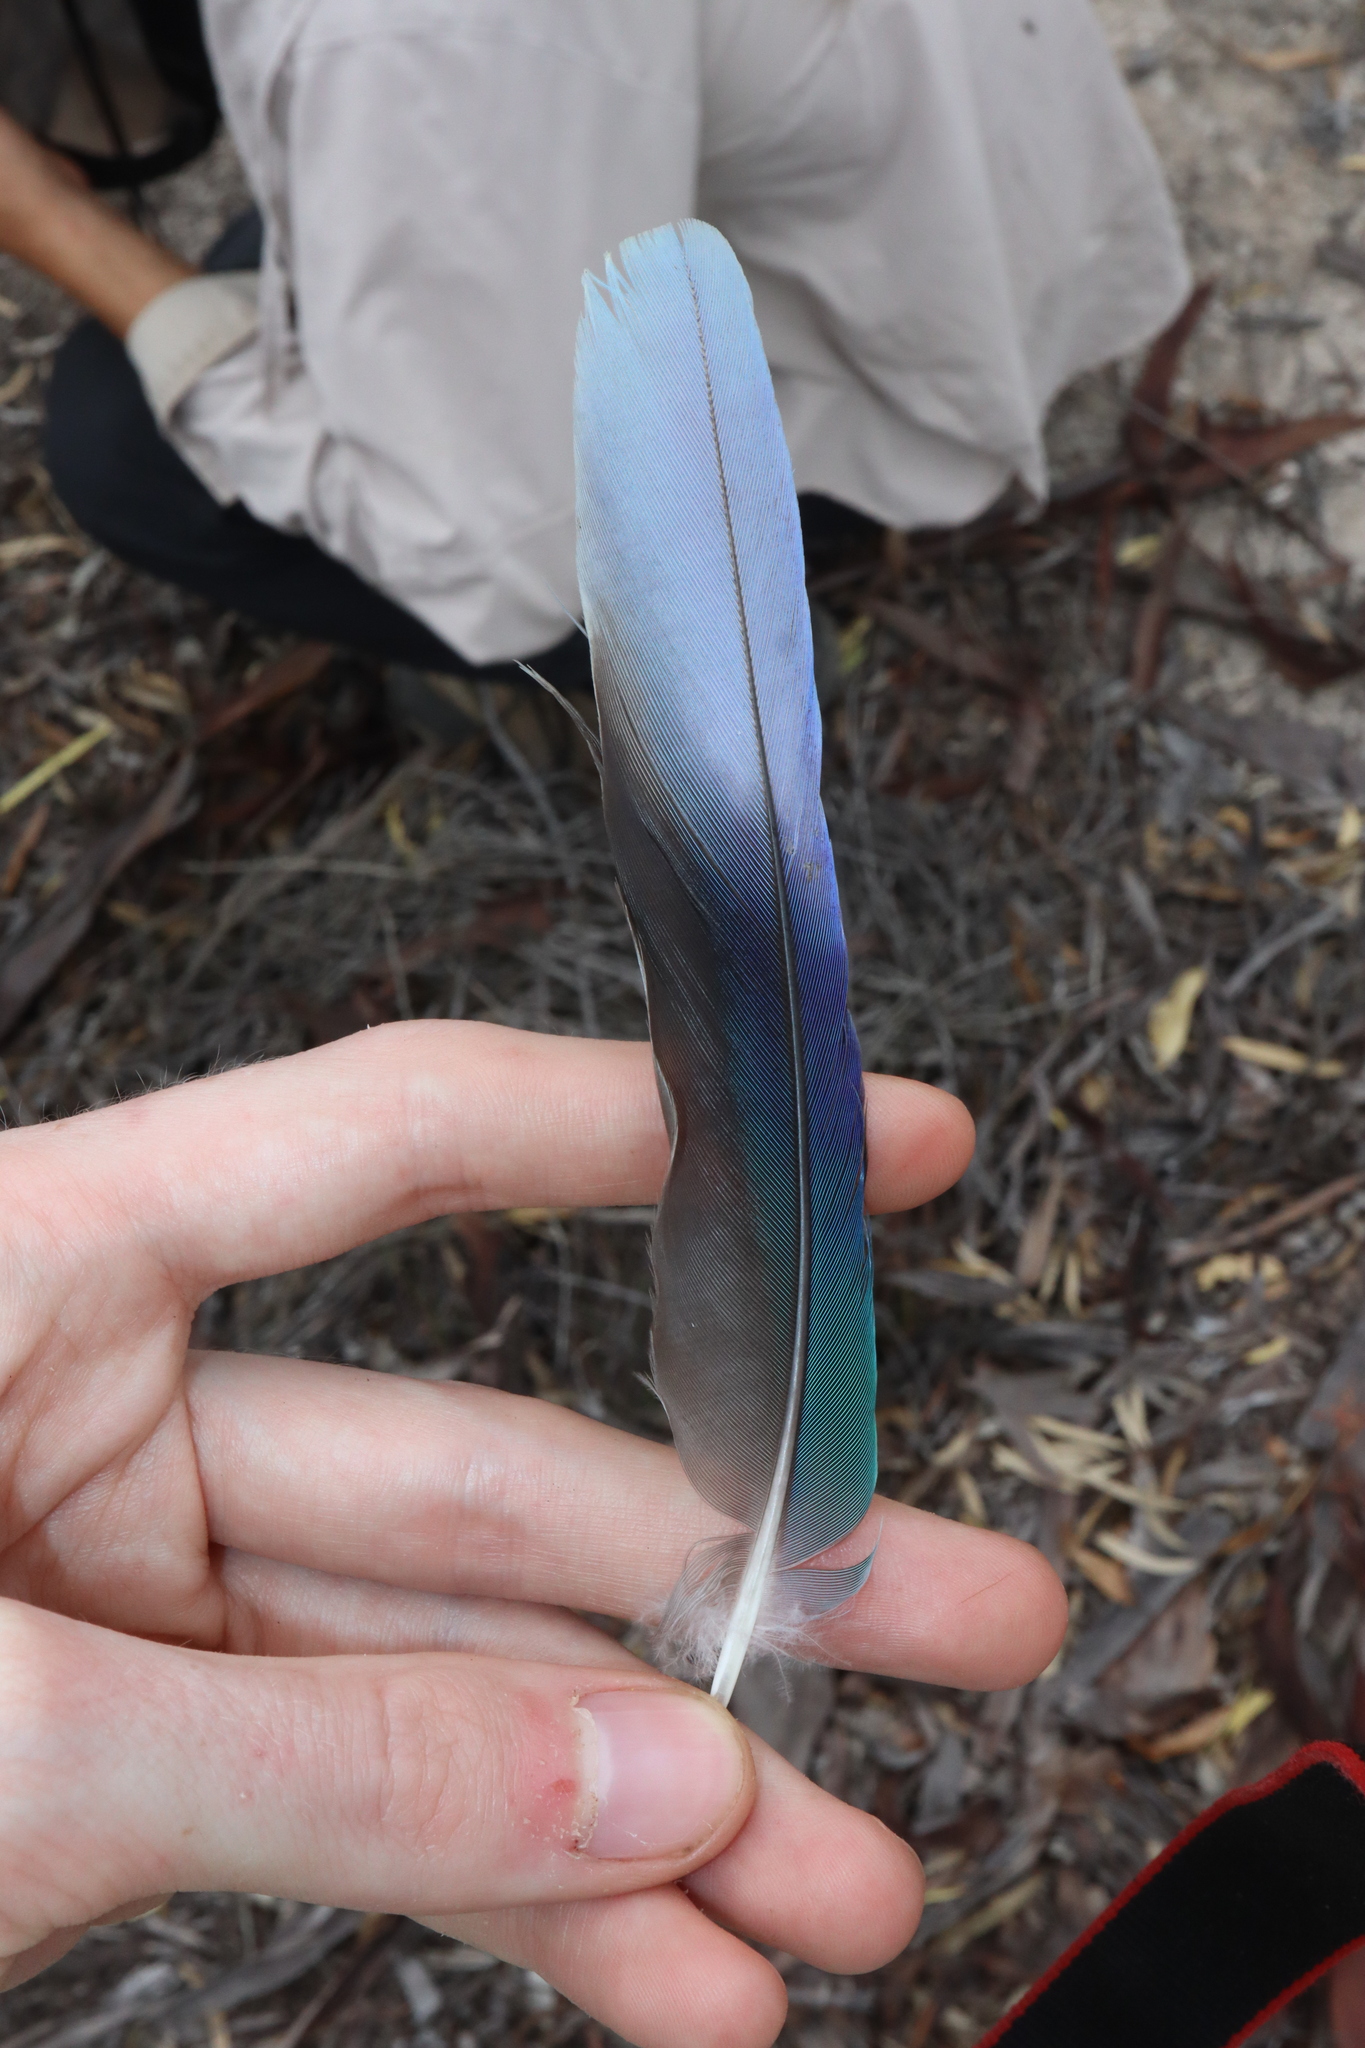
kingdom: Animalia
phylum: Chordata
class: Aves
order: Psittaciformes
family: Psittacidae
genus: Barnardius
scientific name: Barnardius zonarius
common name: Australian ringneck
